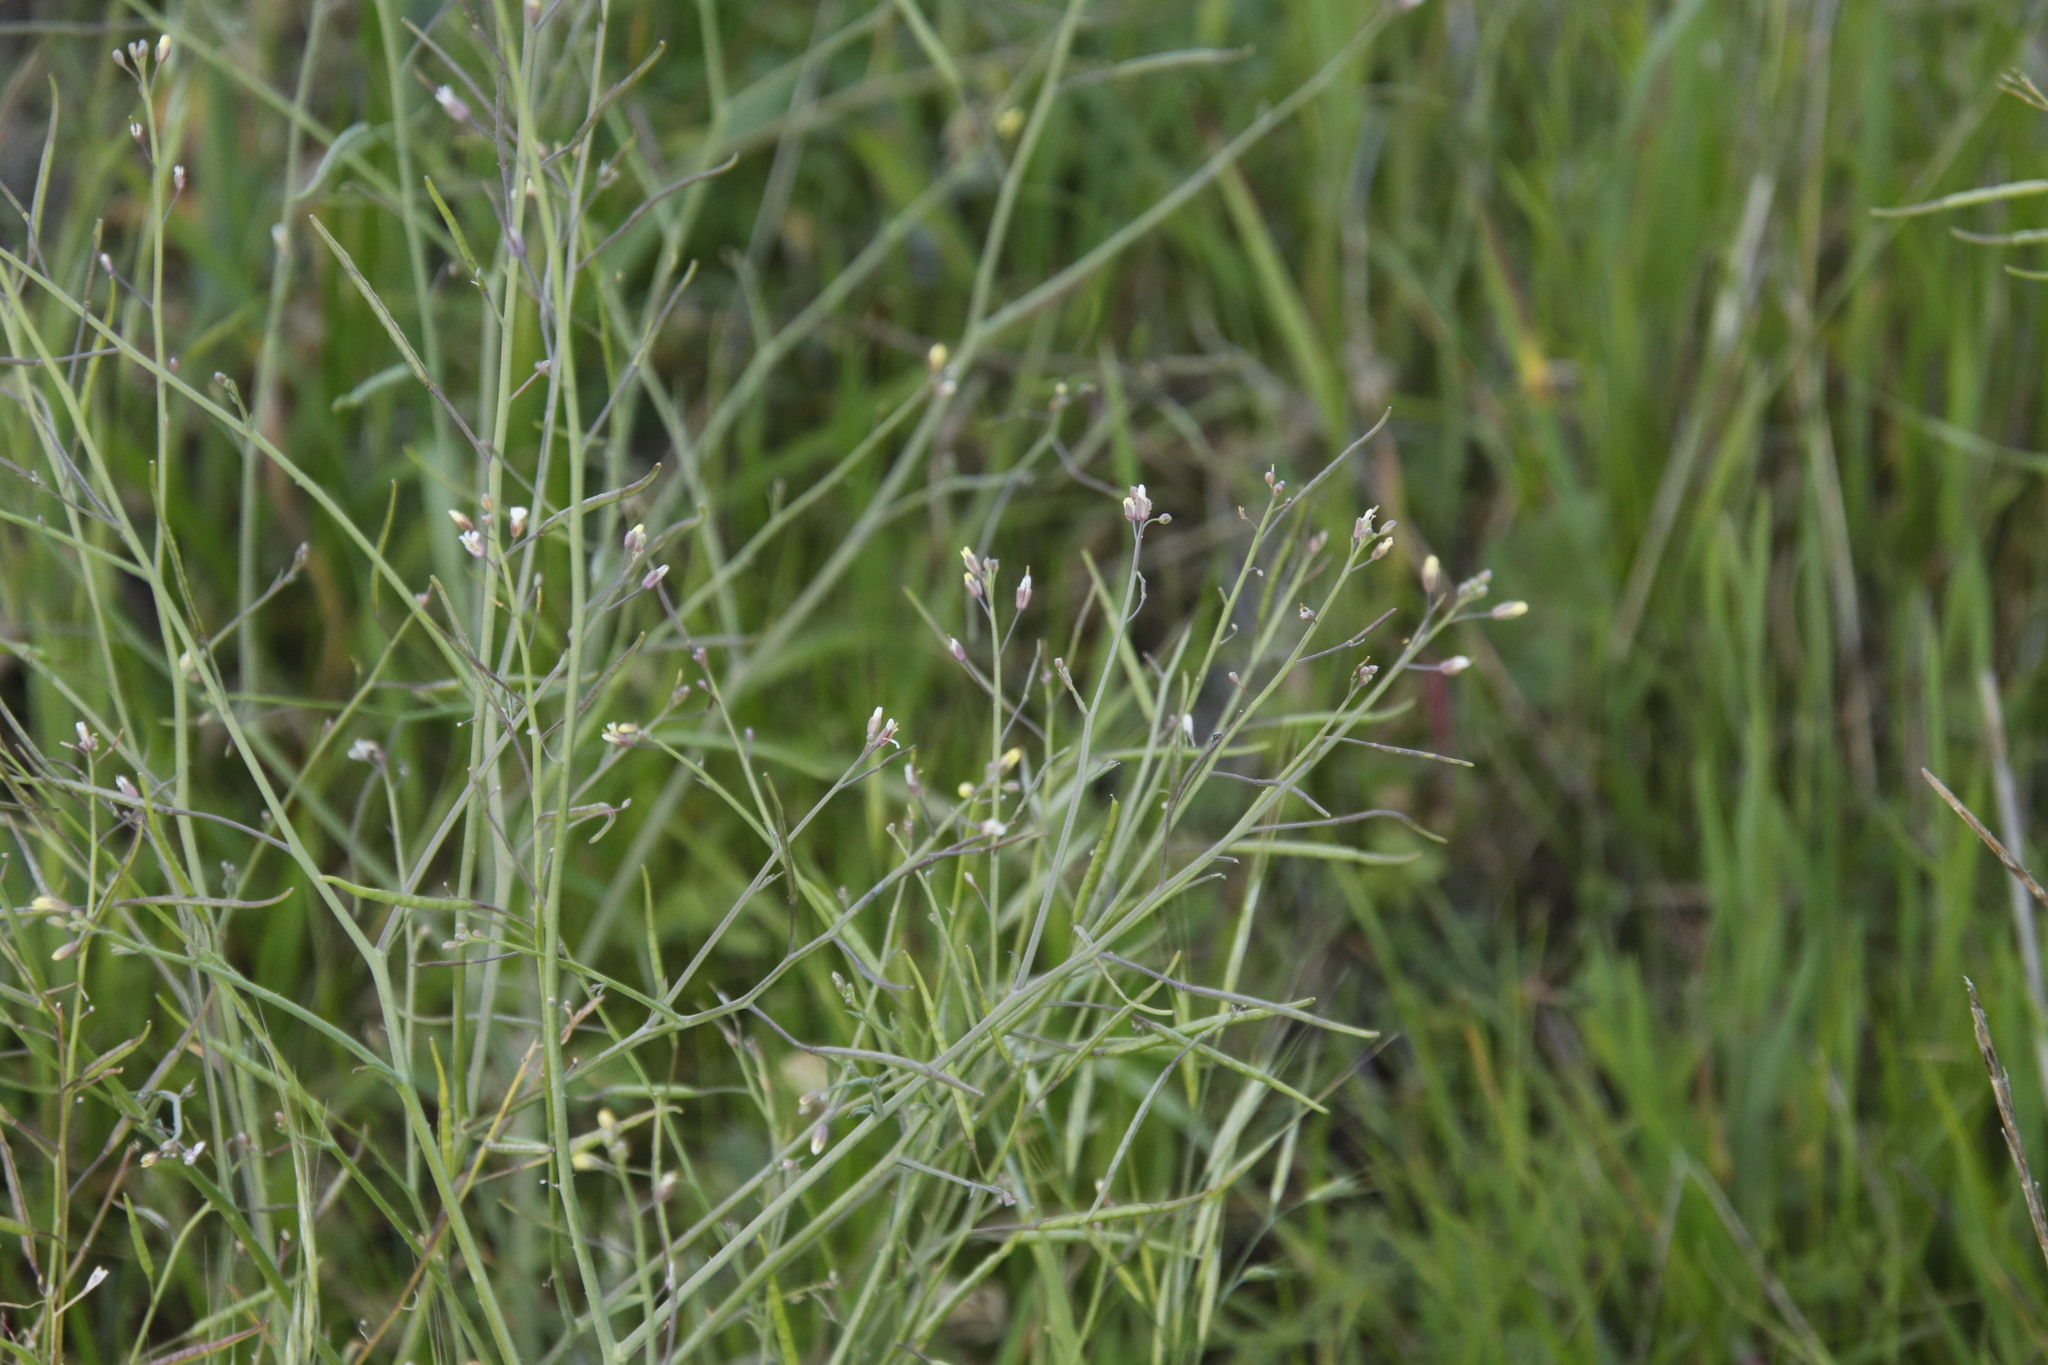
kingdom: Plantae
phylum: Tracheophyta
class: Magnoliopsida
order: Brassicales
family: Brassicaceae
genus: Brassica
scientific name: Brassica tournefortii
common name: Pale cabbage
